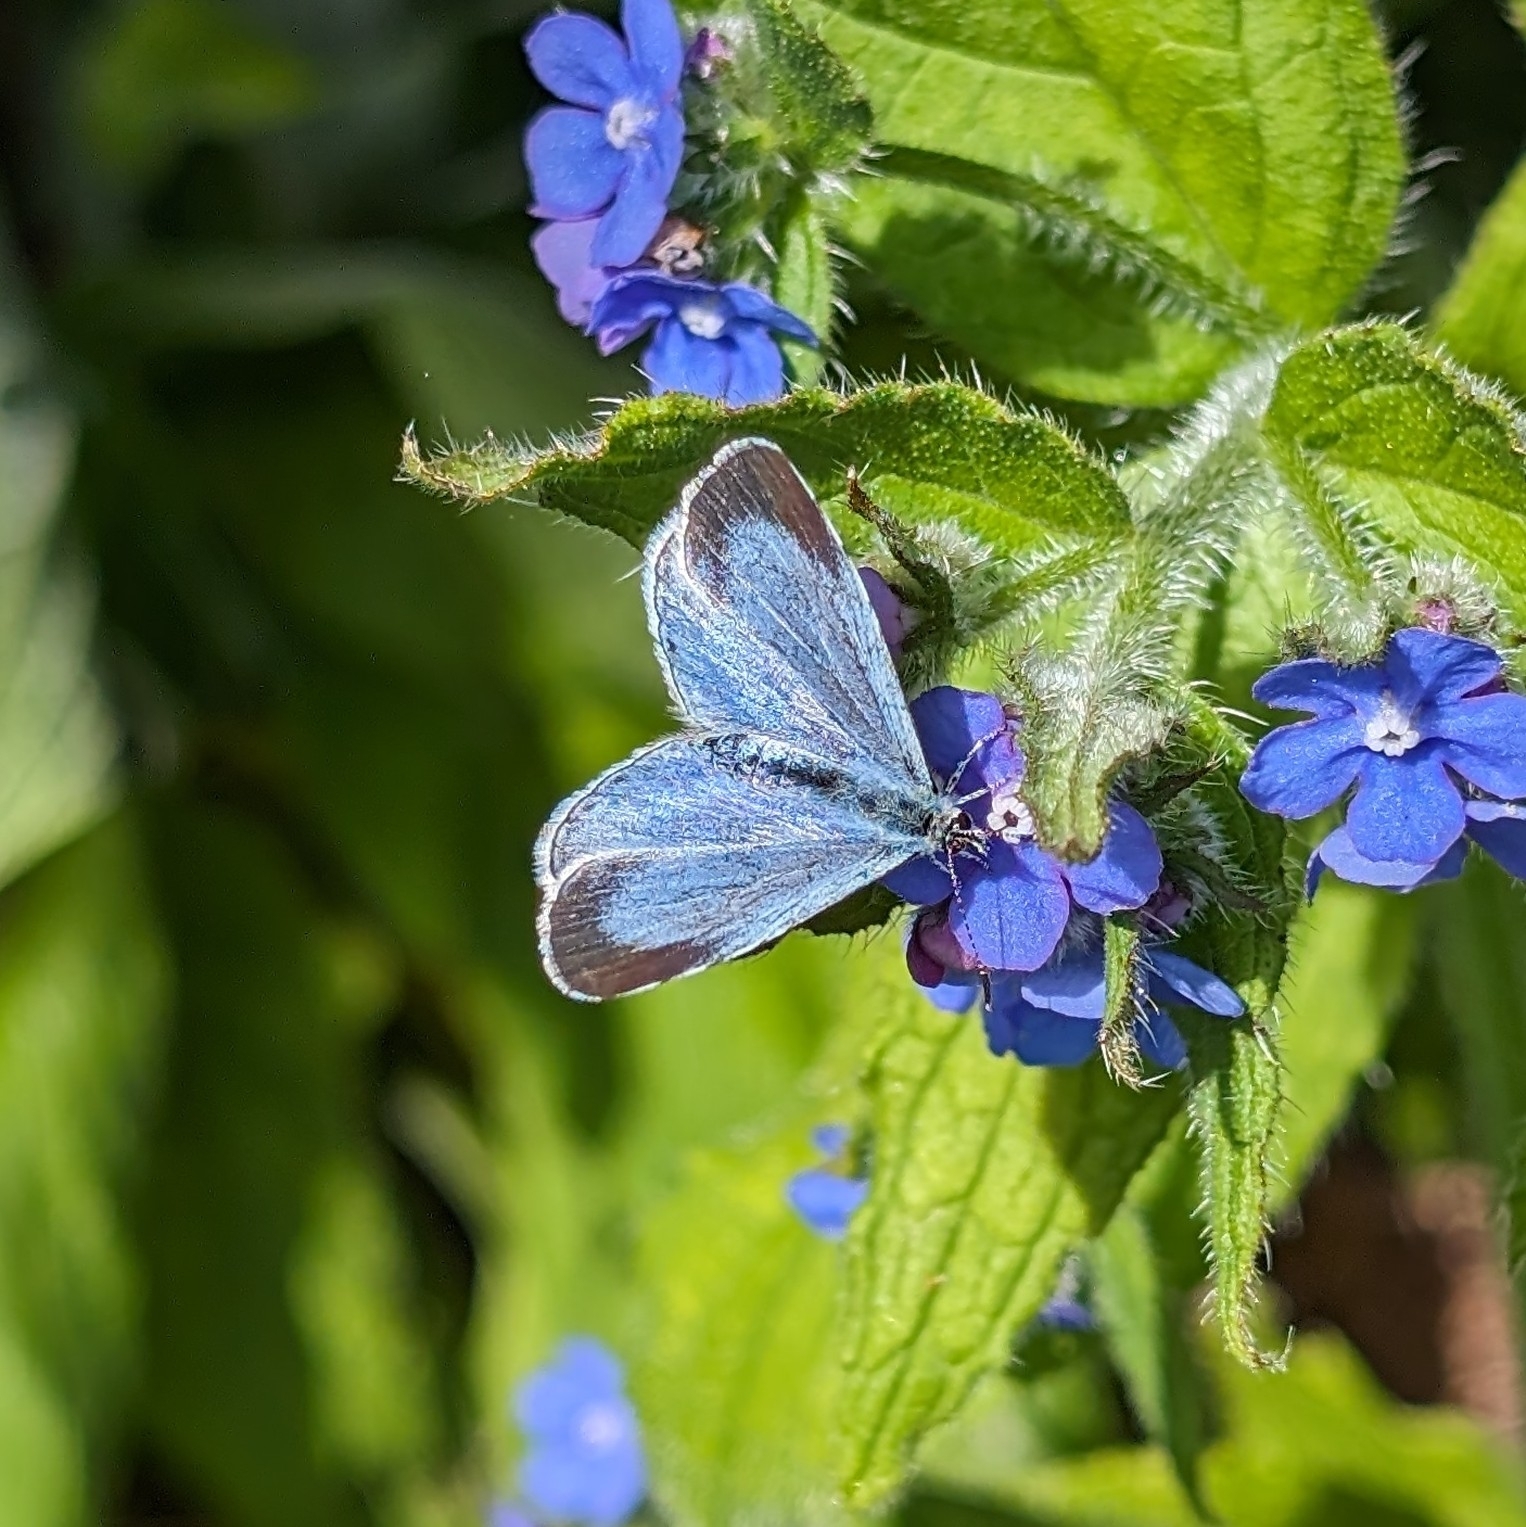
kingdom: Animalia
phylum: Arthropoda
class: Insecta
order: Lepidoptera
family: Lycaenidae
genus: Celastrina
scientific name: Celastrina argiolus
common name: Holly blue
